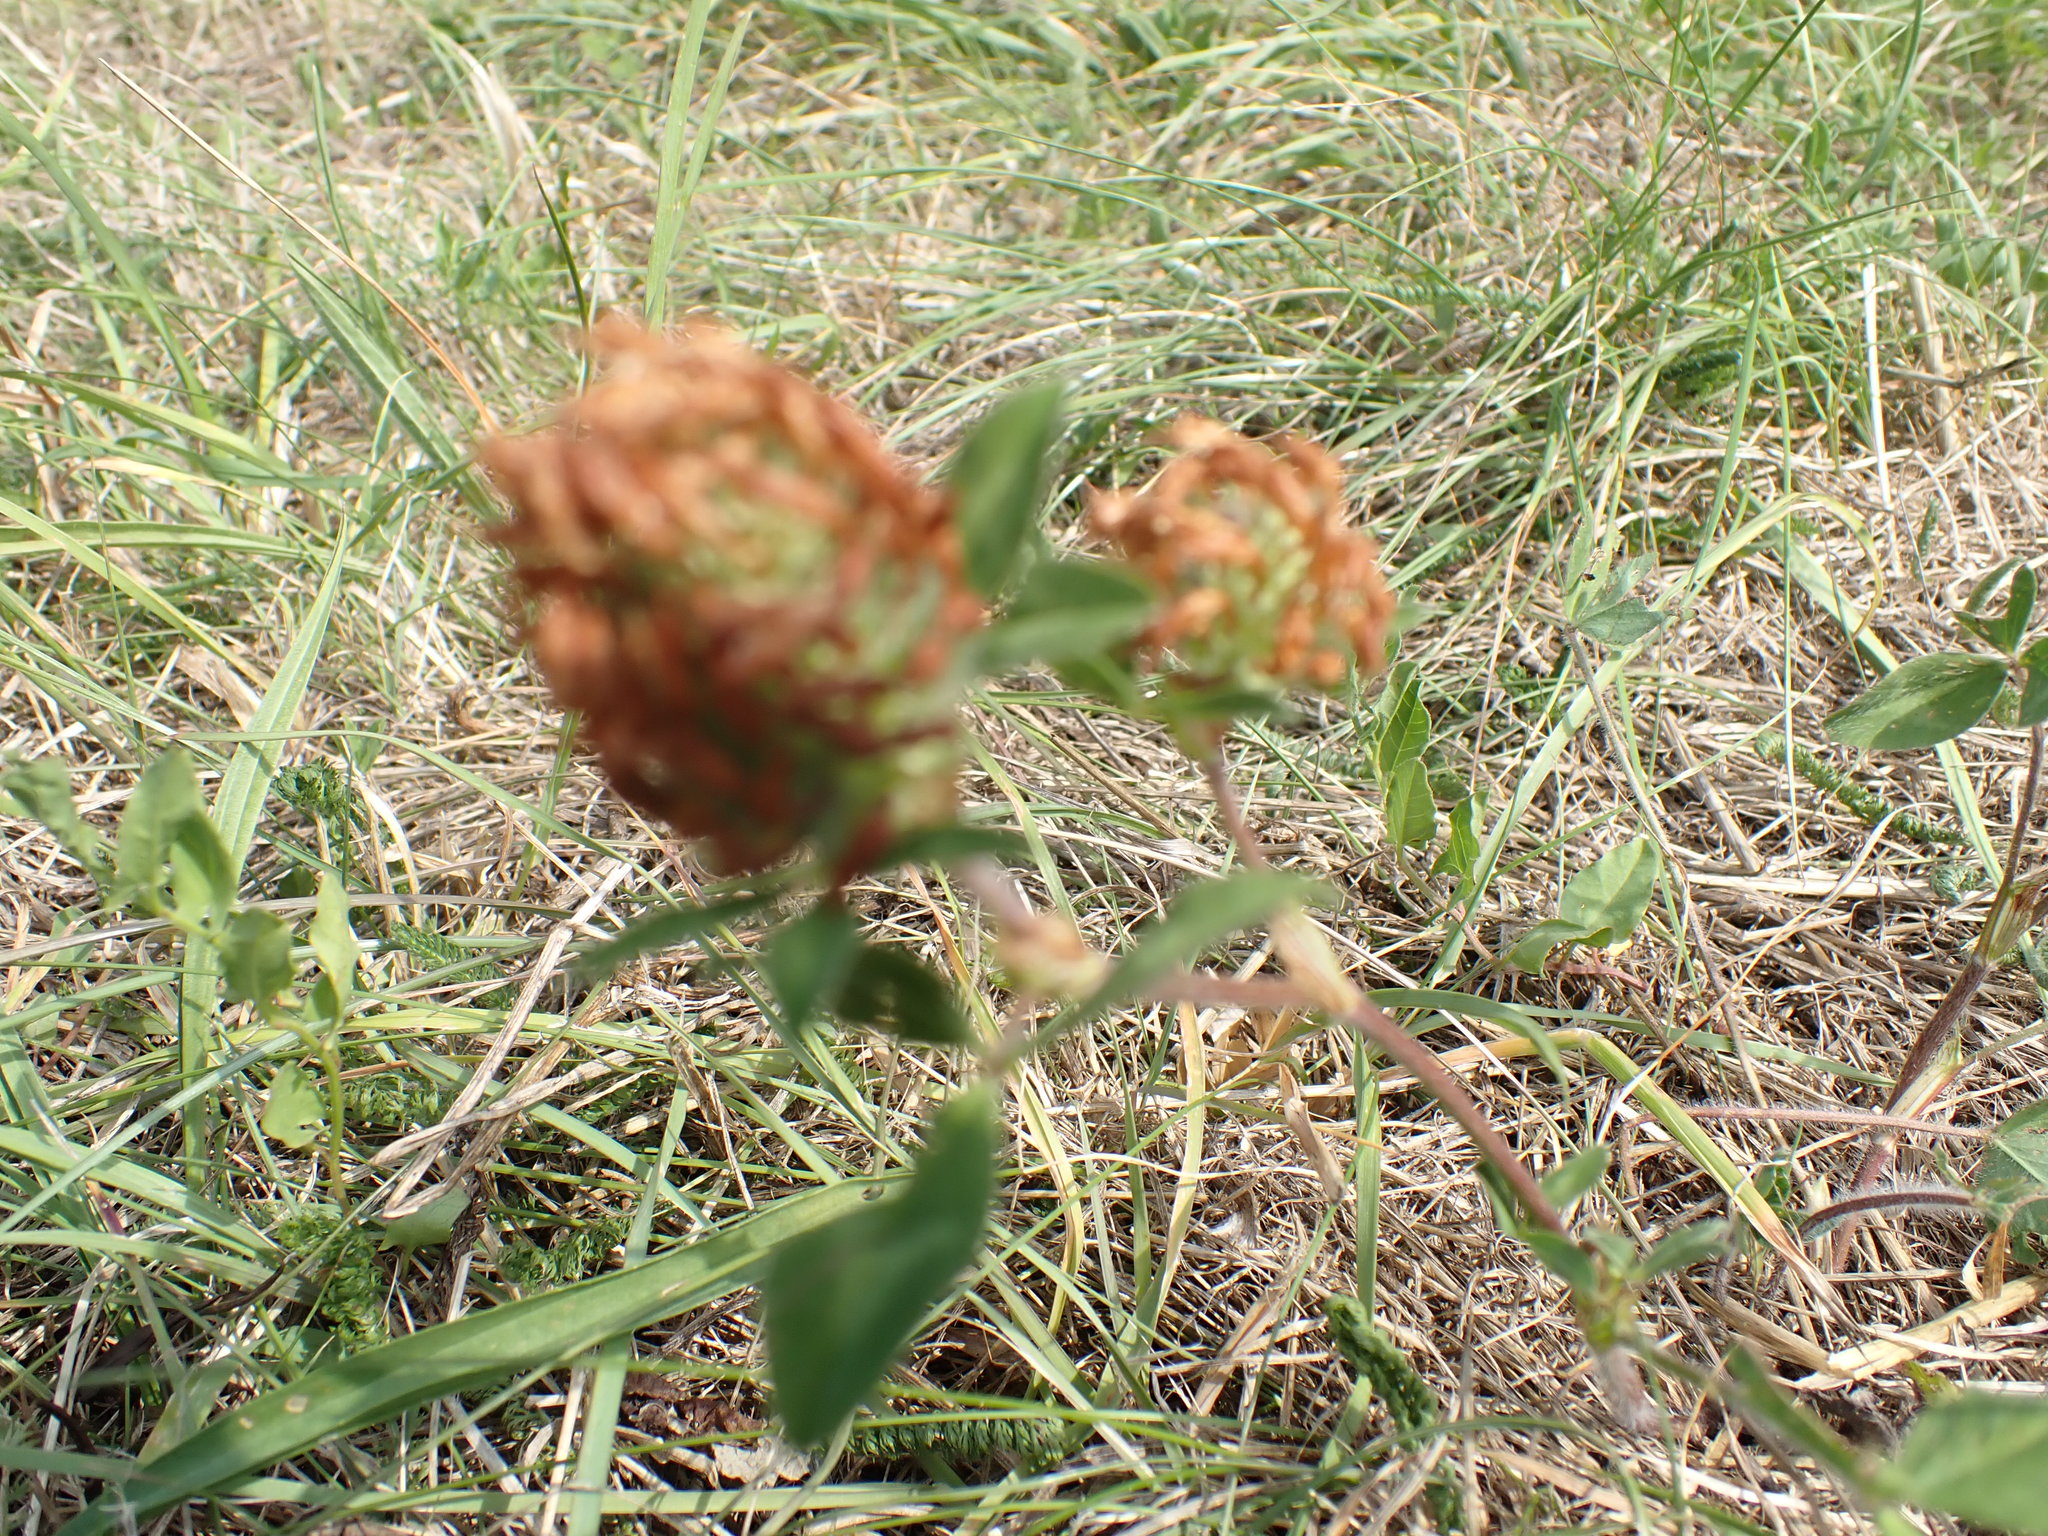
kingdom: Plantae
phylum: Tracheophyta
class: Magnoliopsida
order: Fabales
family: Fabaceae
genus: Trifolium
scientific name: Trifolium pratense
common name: Red clover
